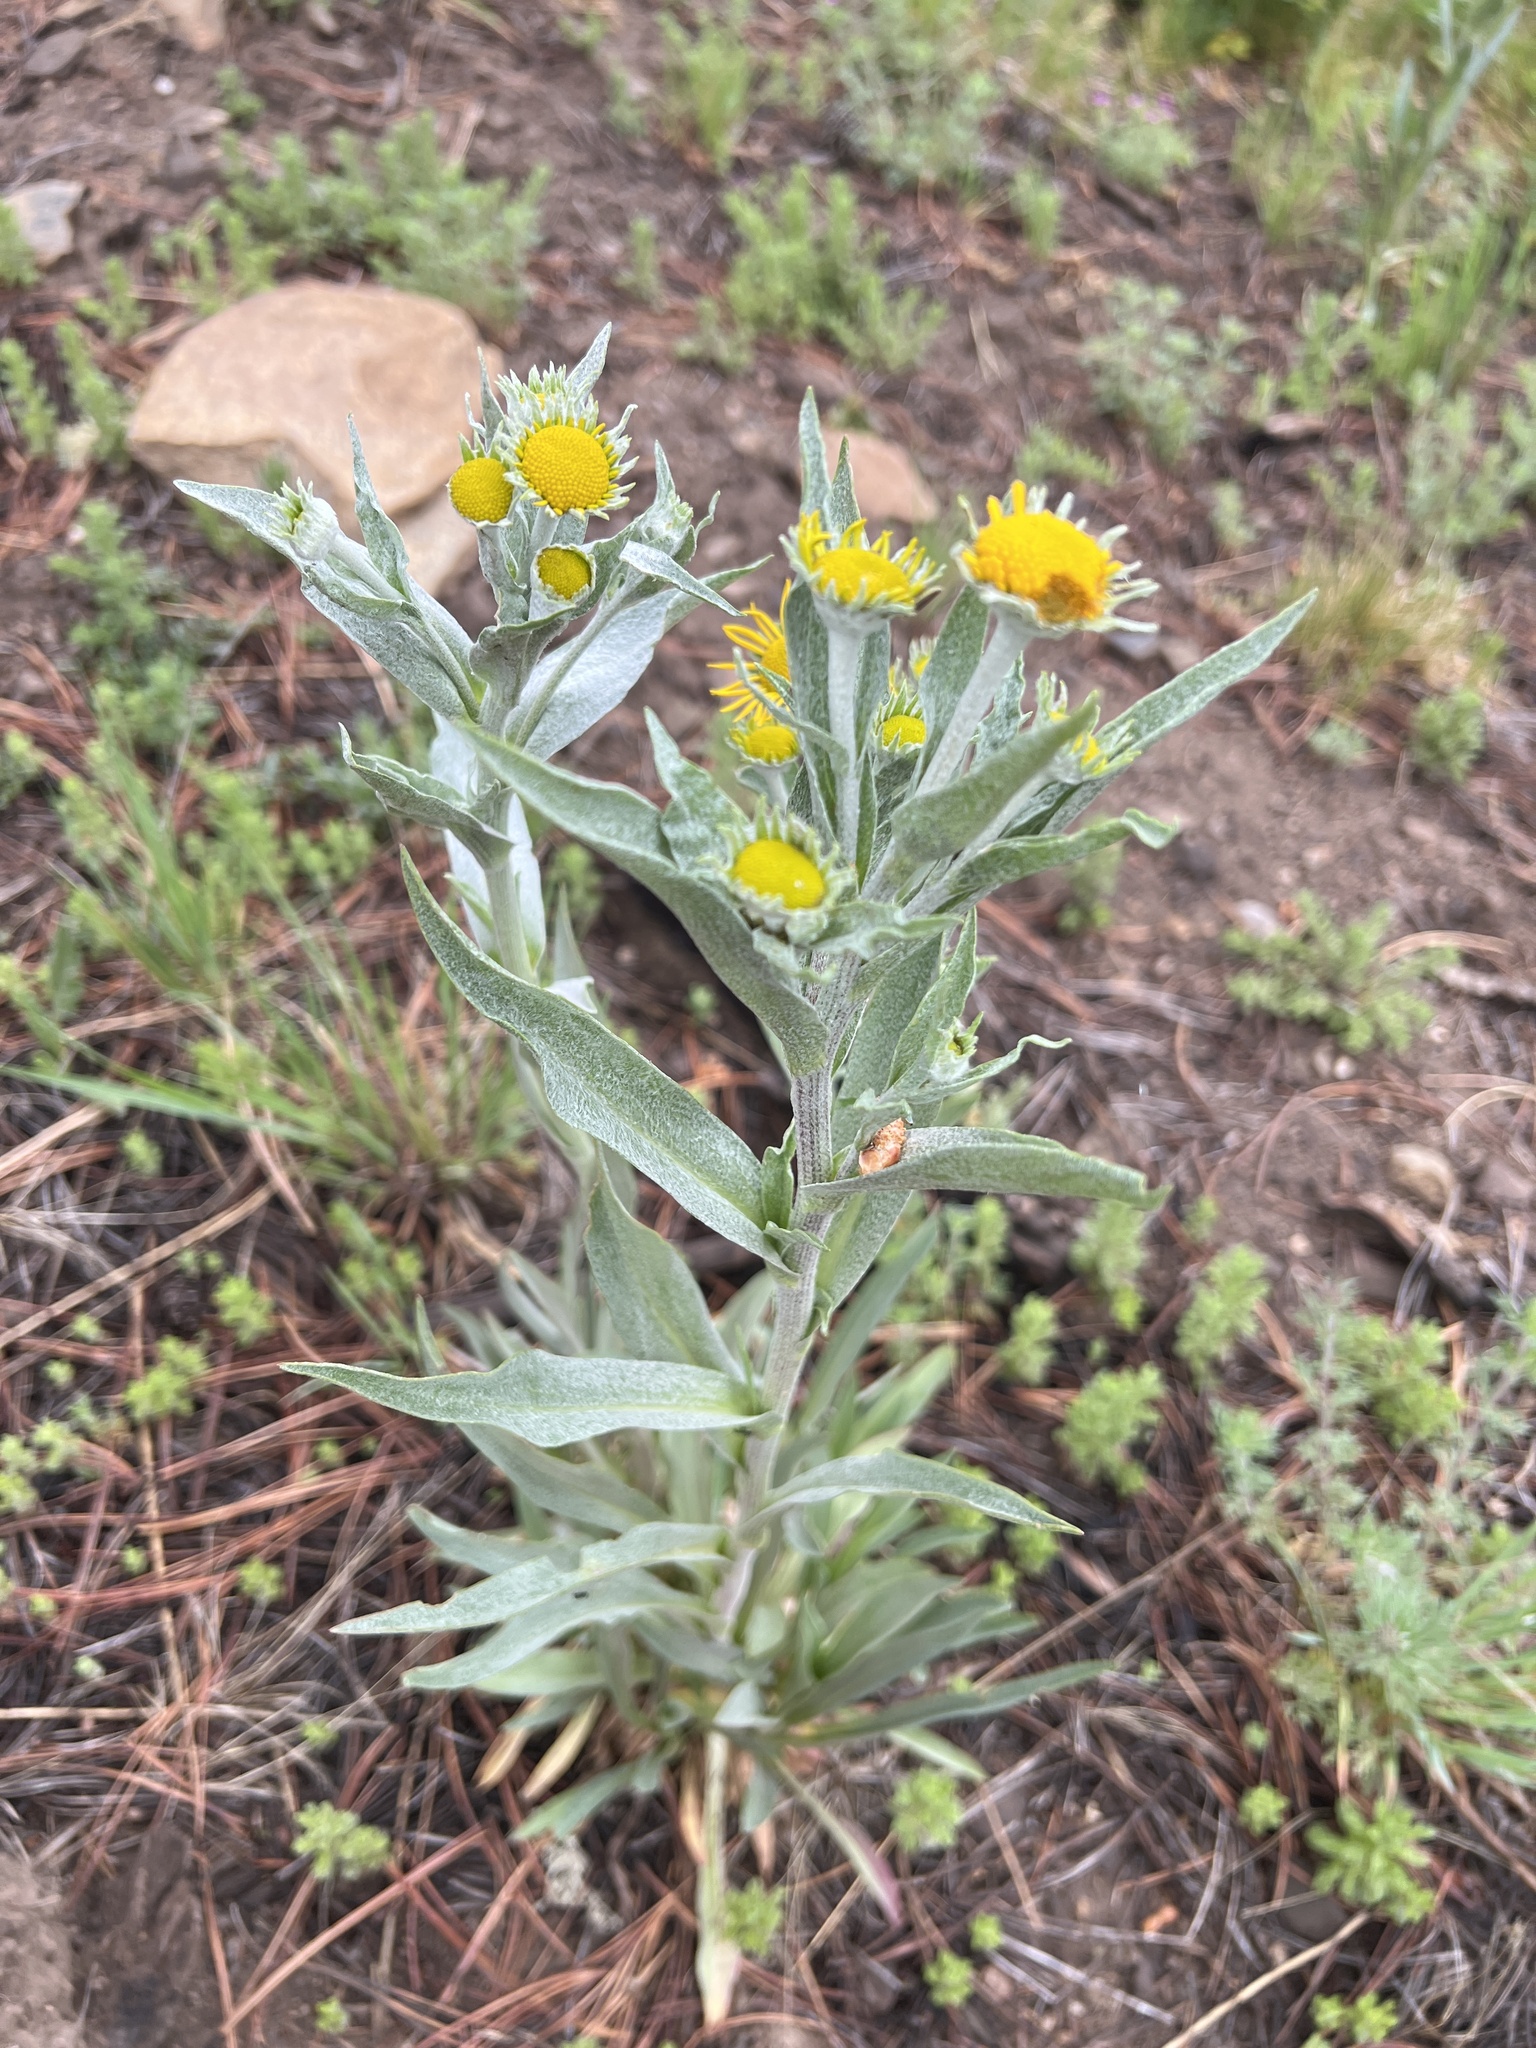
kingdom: Plantae
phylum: Tracheophyta
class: Magnoliopsida
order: Asterales
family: Asteraceae
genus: Hymenoxys
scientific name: Hymenoxys hoopesii
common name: Orange-sneezeweed
